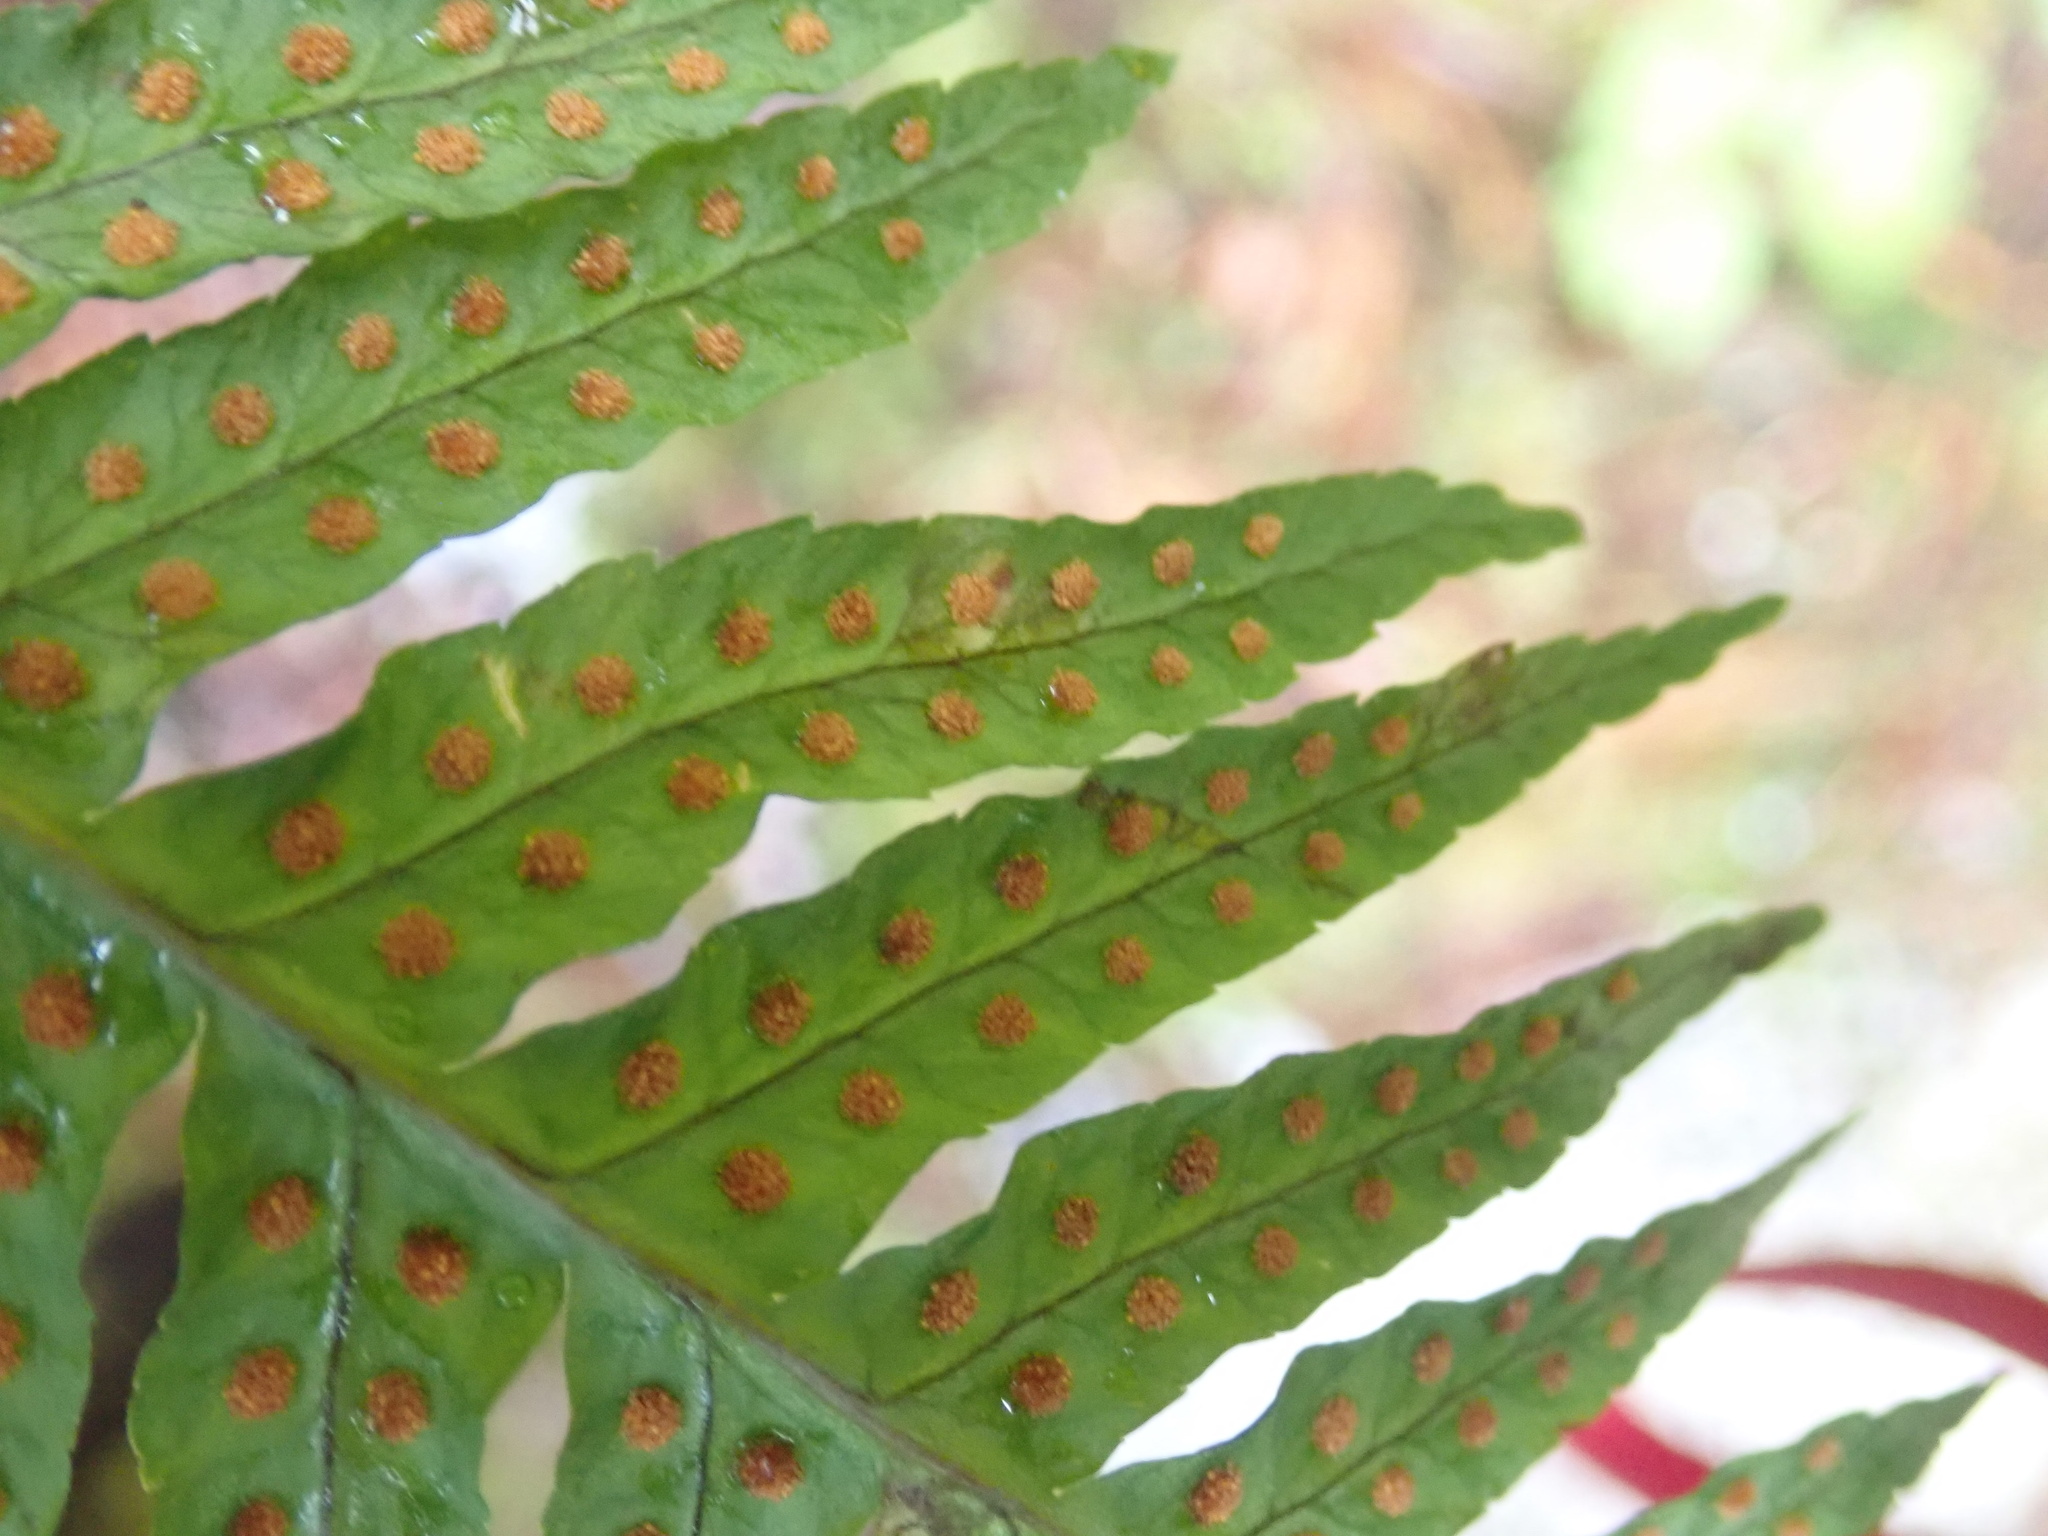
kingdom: Plantae
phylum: Tracheophyta
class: Polypodiopsida
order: Polypodiales
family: Polypodiaceae
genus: Polypodium
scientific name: Polypodium glycyrrhiza
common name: Licorice fern
